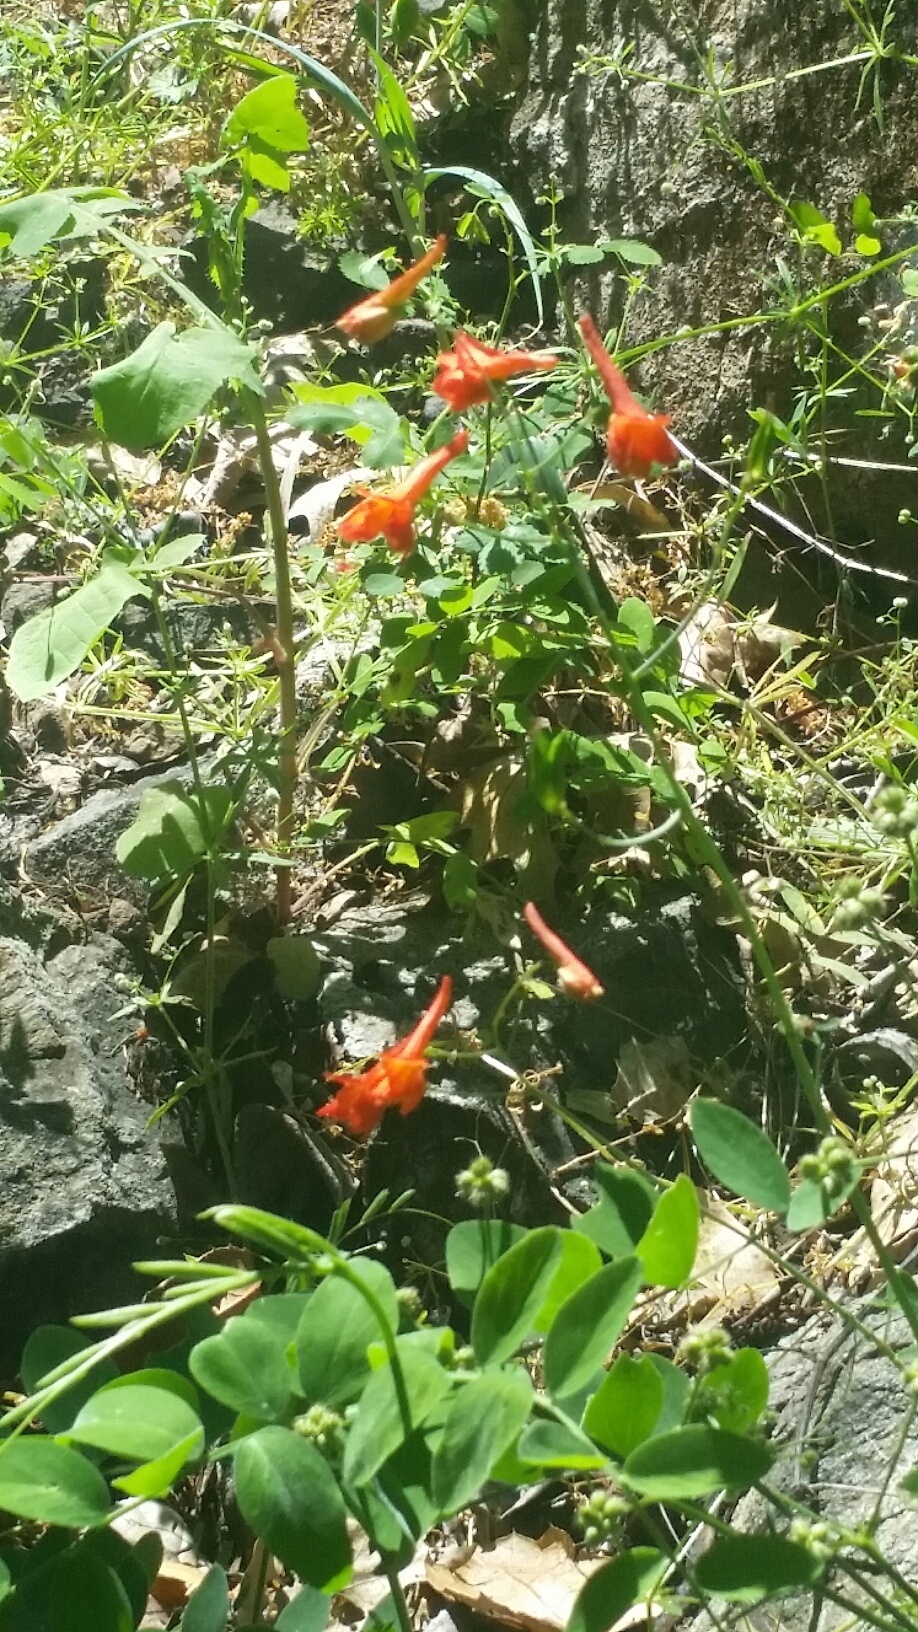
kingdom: Plantae
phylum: Tracheophyta
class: Magnoliopsida
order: Ranunculales
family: Ranunculaceae
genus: Delphinium
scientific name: Delphinium nudicaule
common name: Red larkspur
